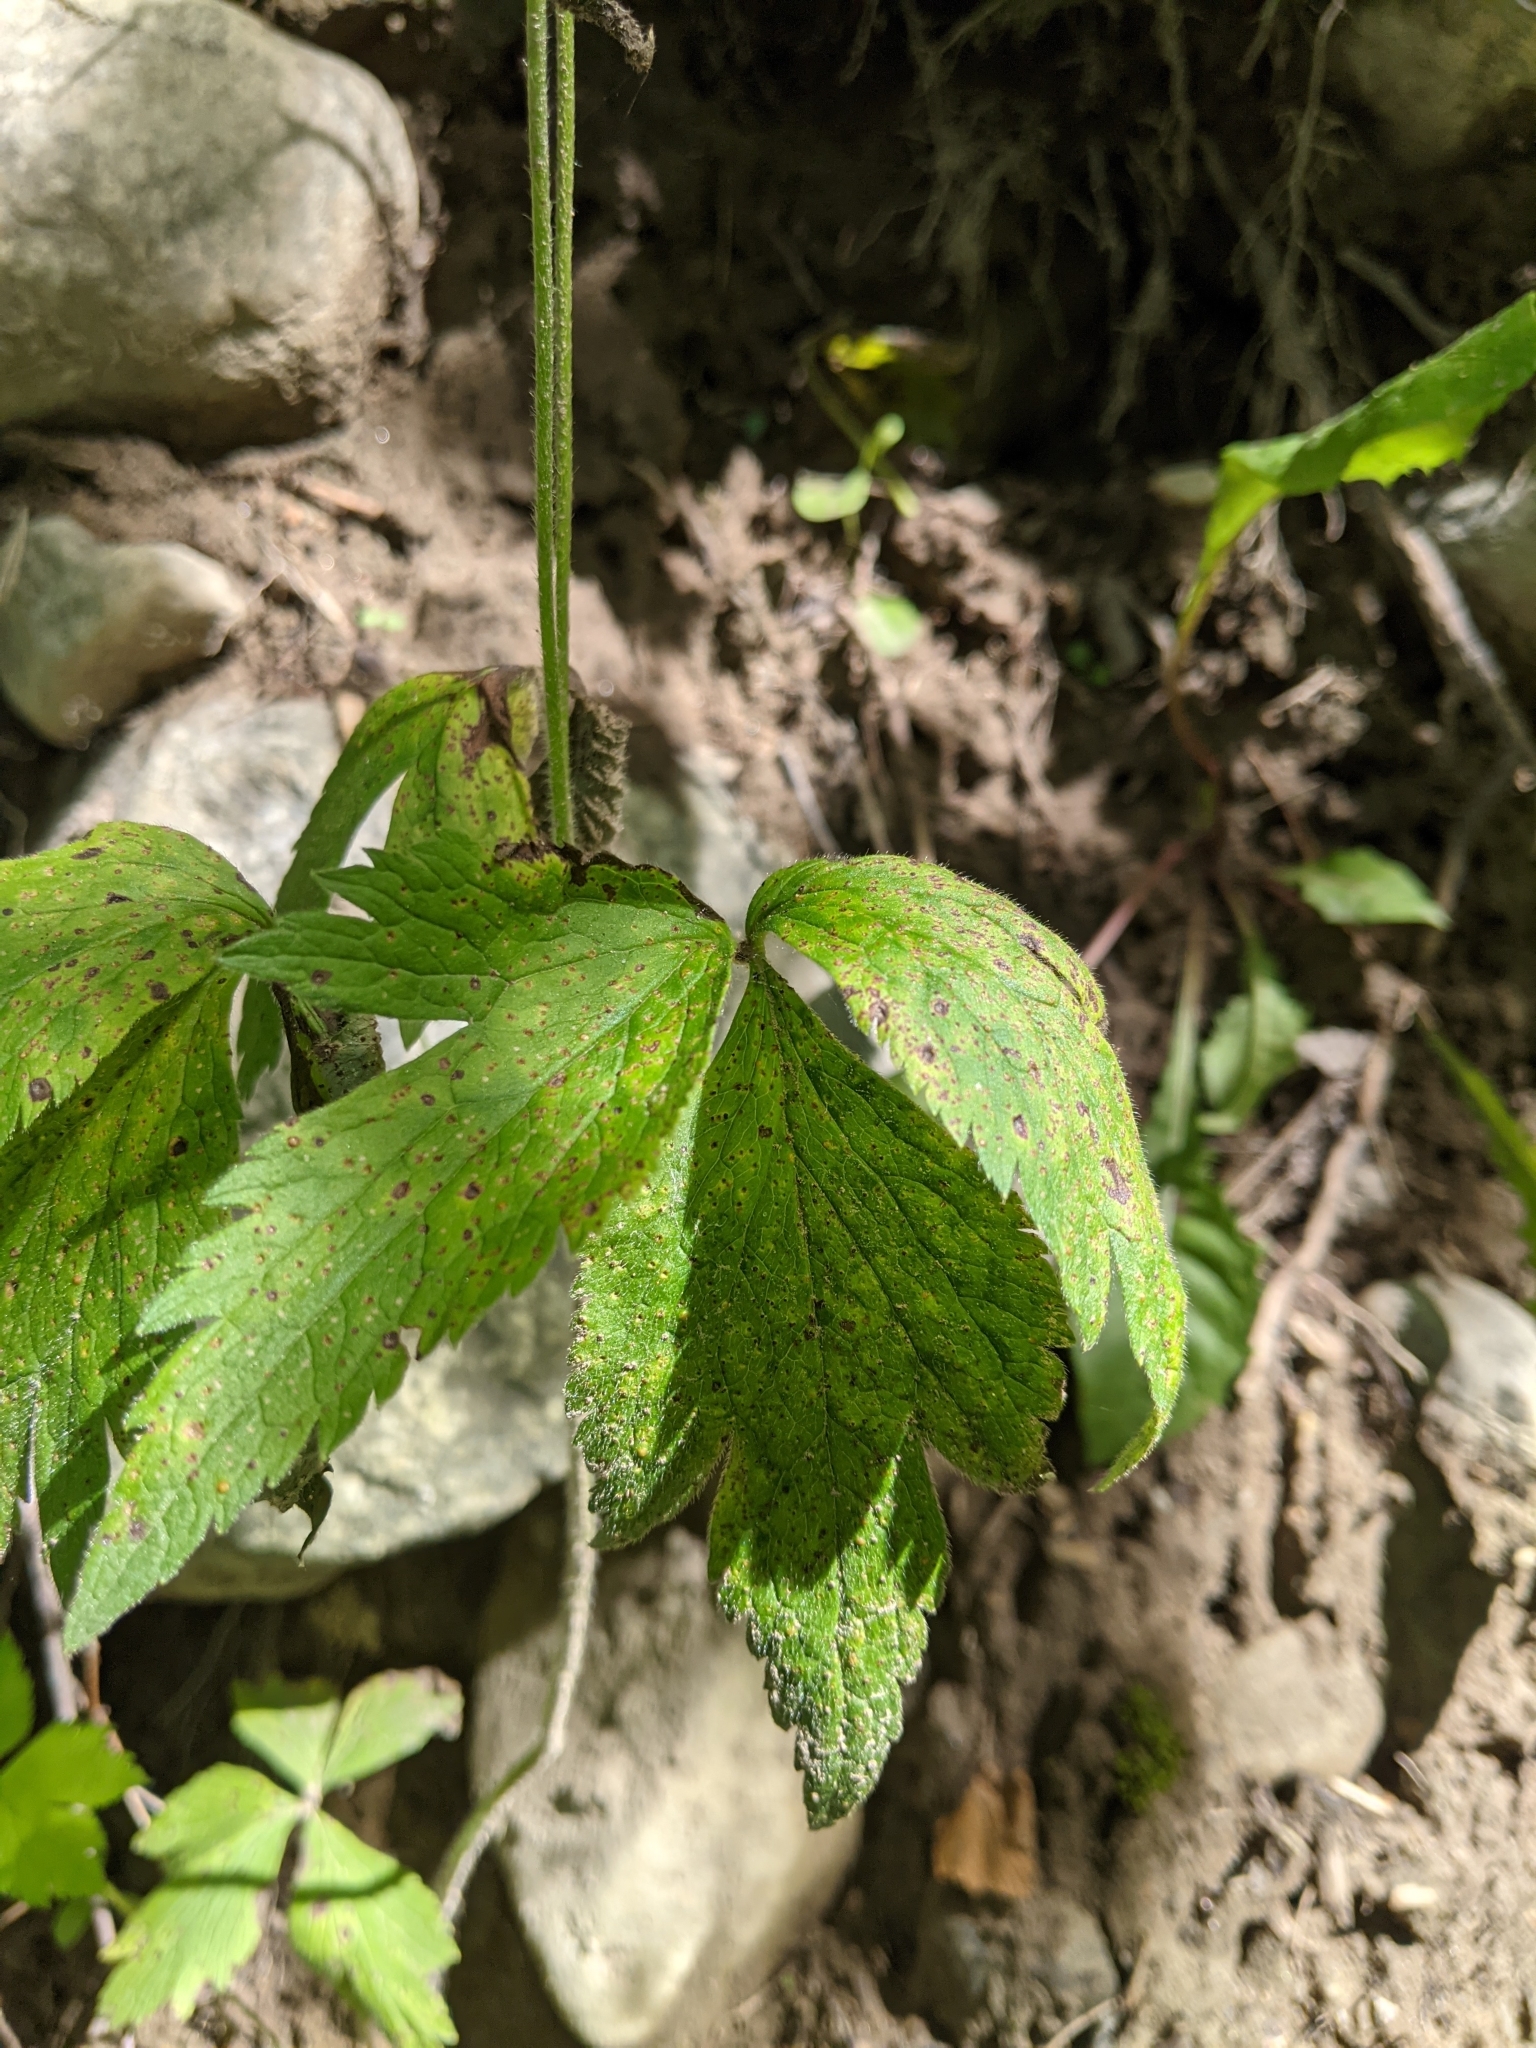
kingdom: Plantae
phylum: Tracheophyta
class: Magnoliopsida
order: Ranunculales
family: Ranunculaceae
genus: Anemone
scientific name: Anemone virginiana
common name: Tall anemone
